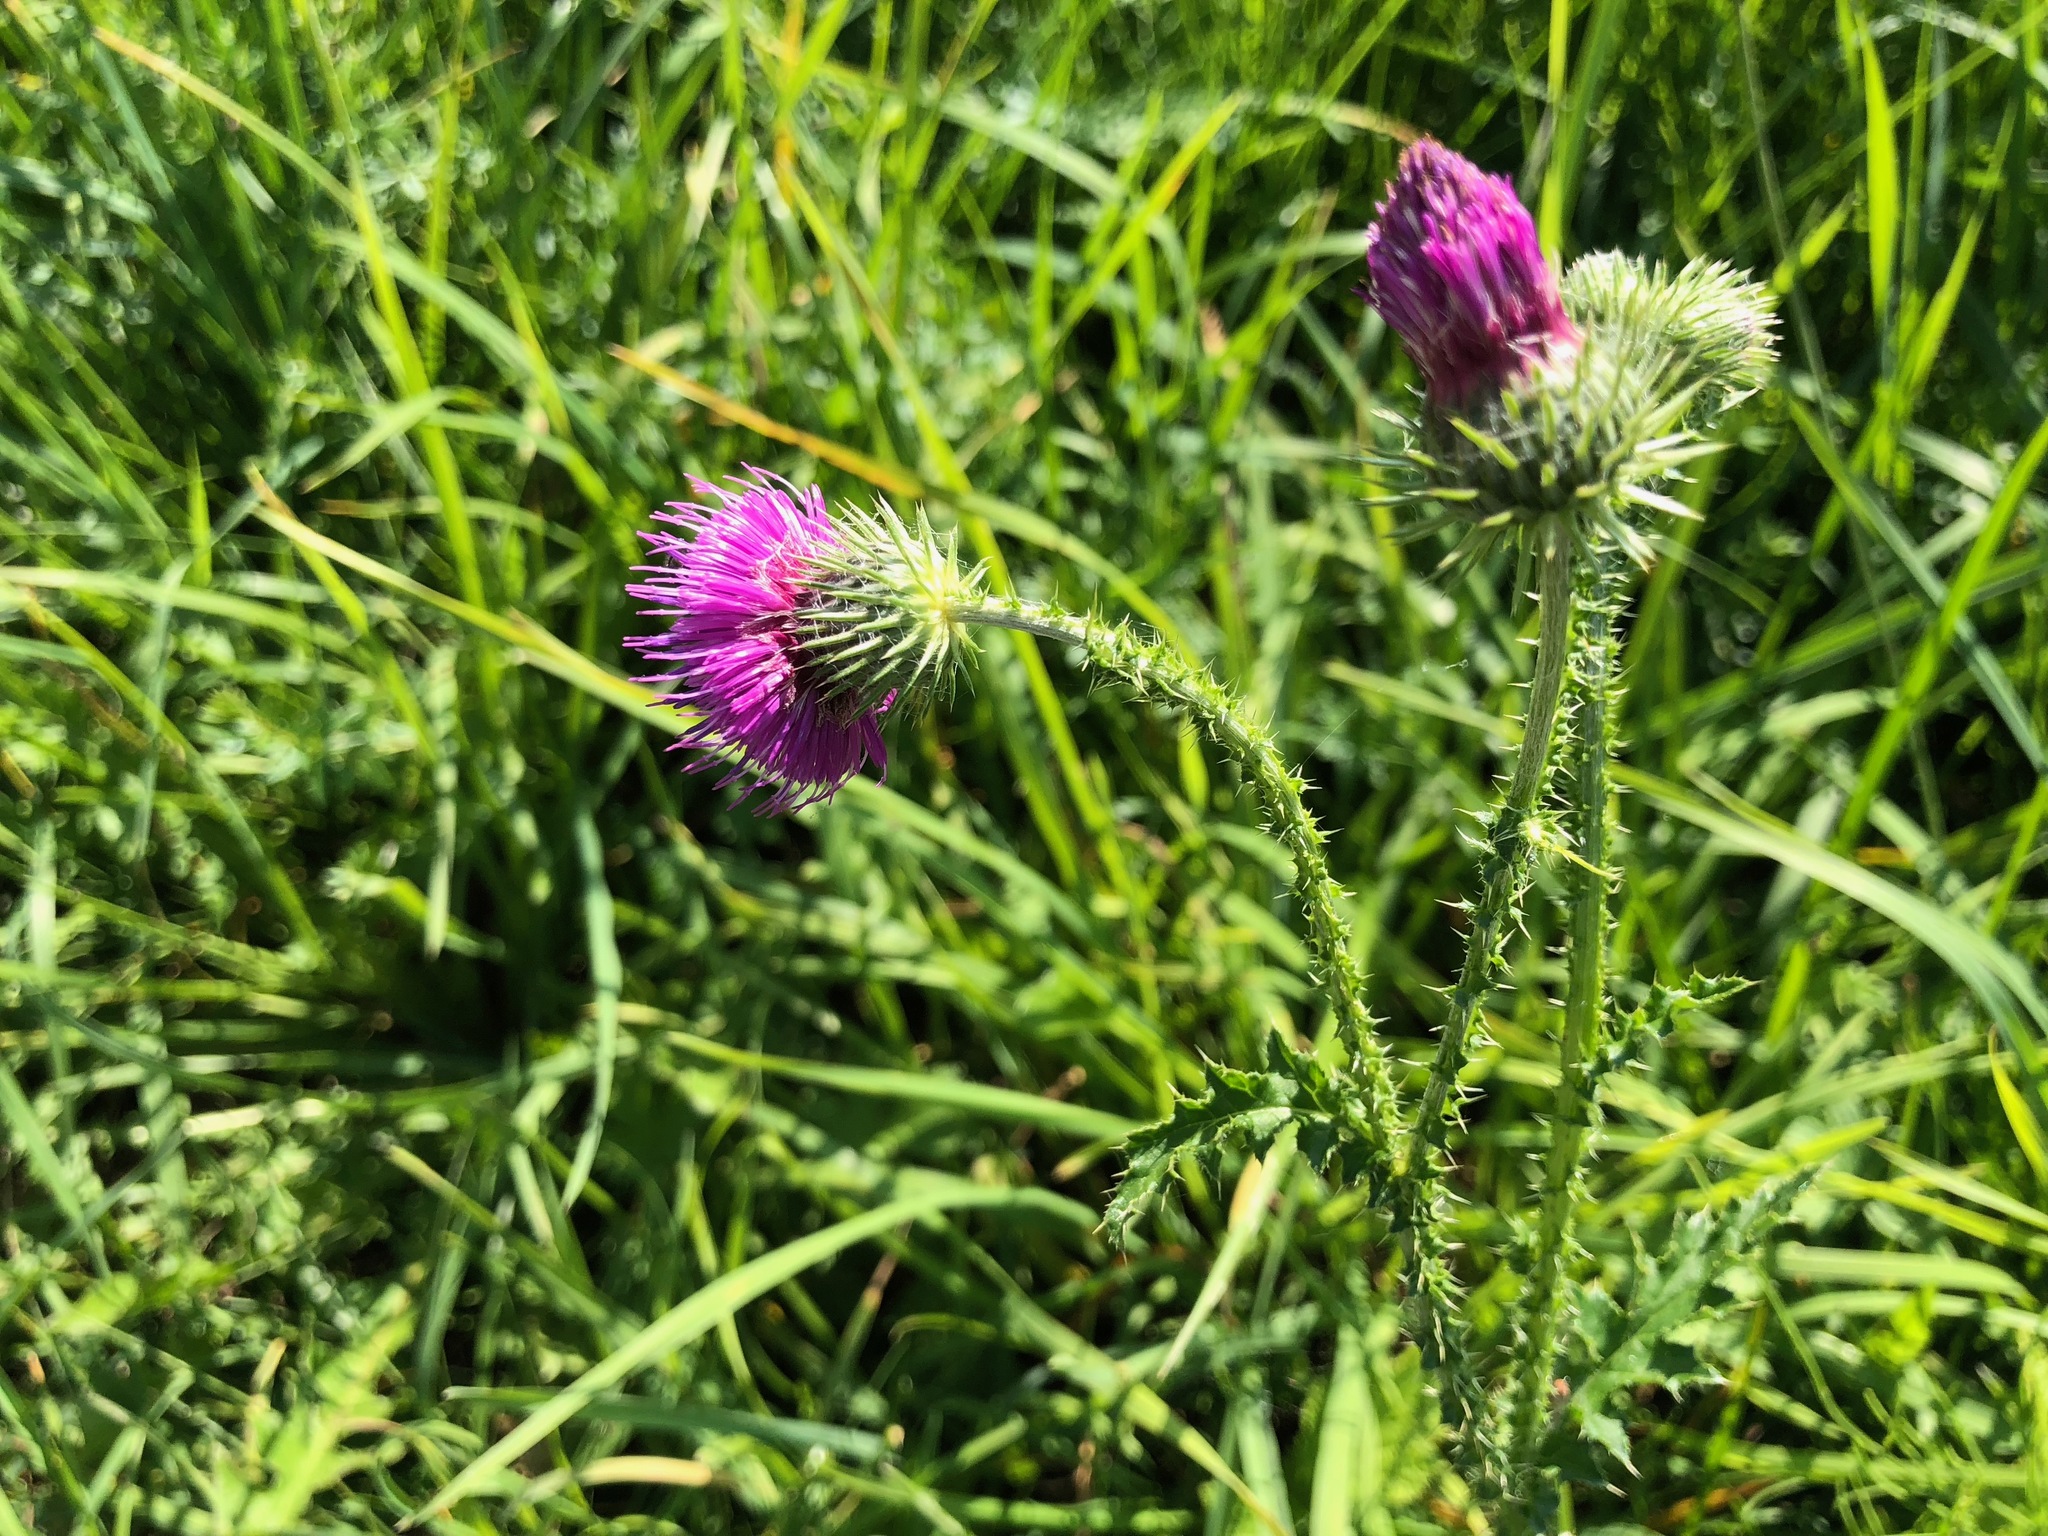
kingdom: Plantae
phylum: Tracheophyta
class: Magnoliopsida
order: Asterales
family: Asteraceae
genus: Carduus
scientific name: Carduus defloratus
